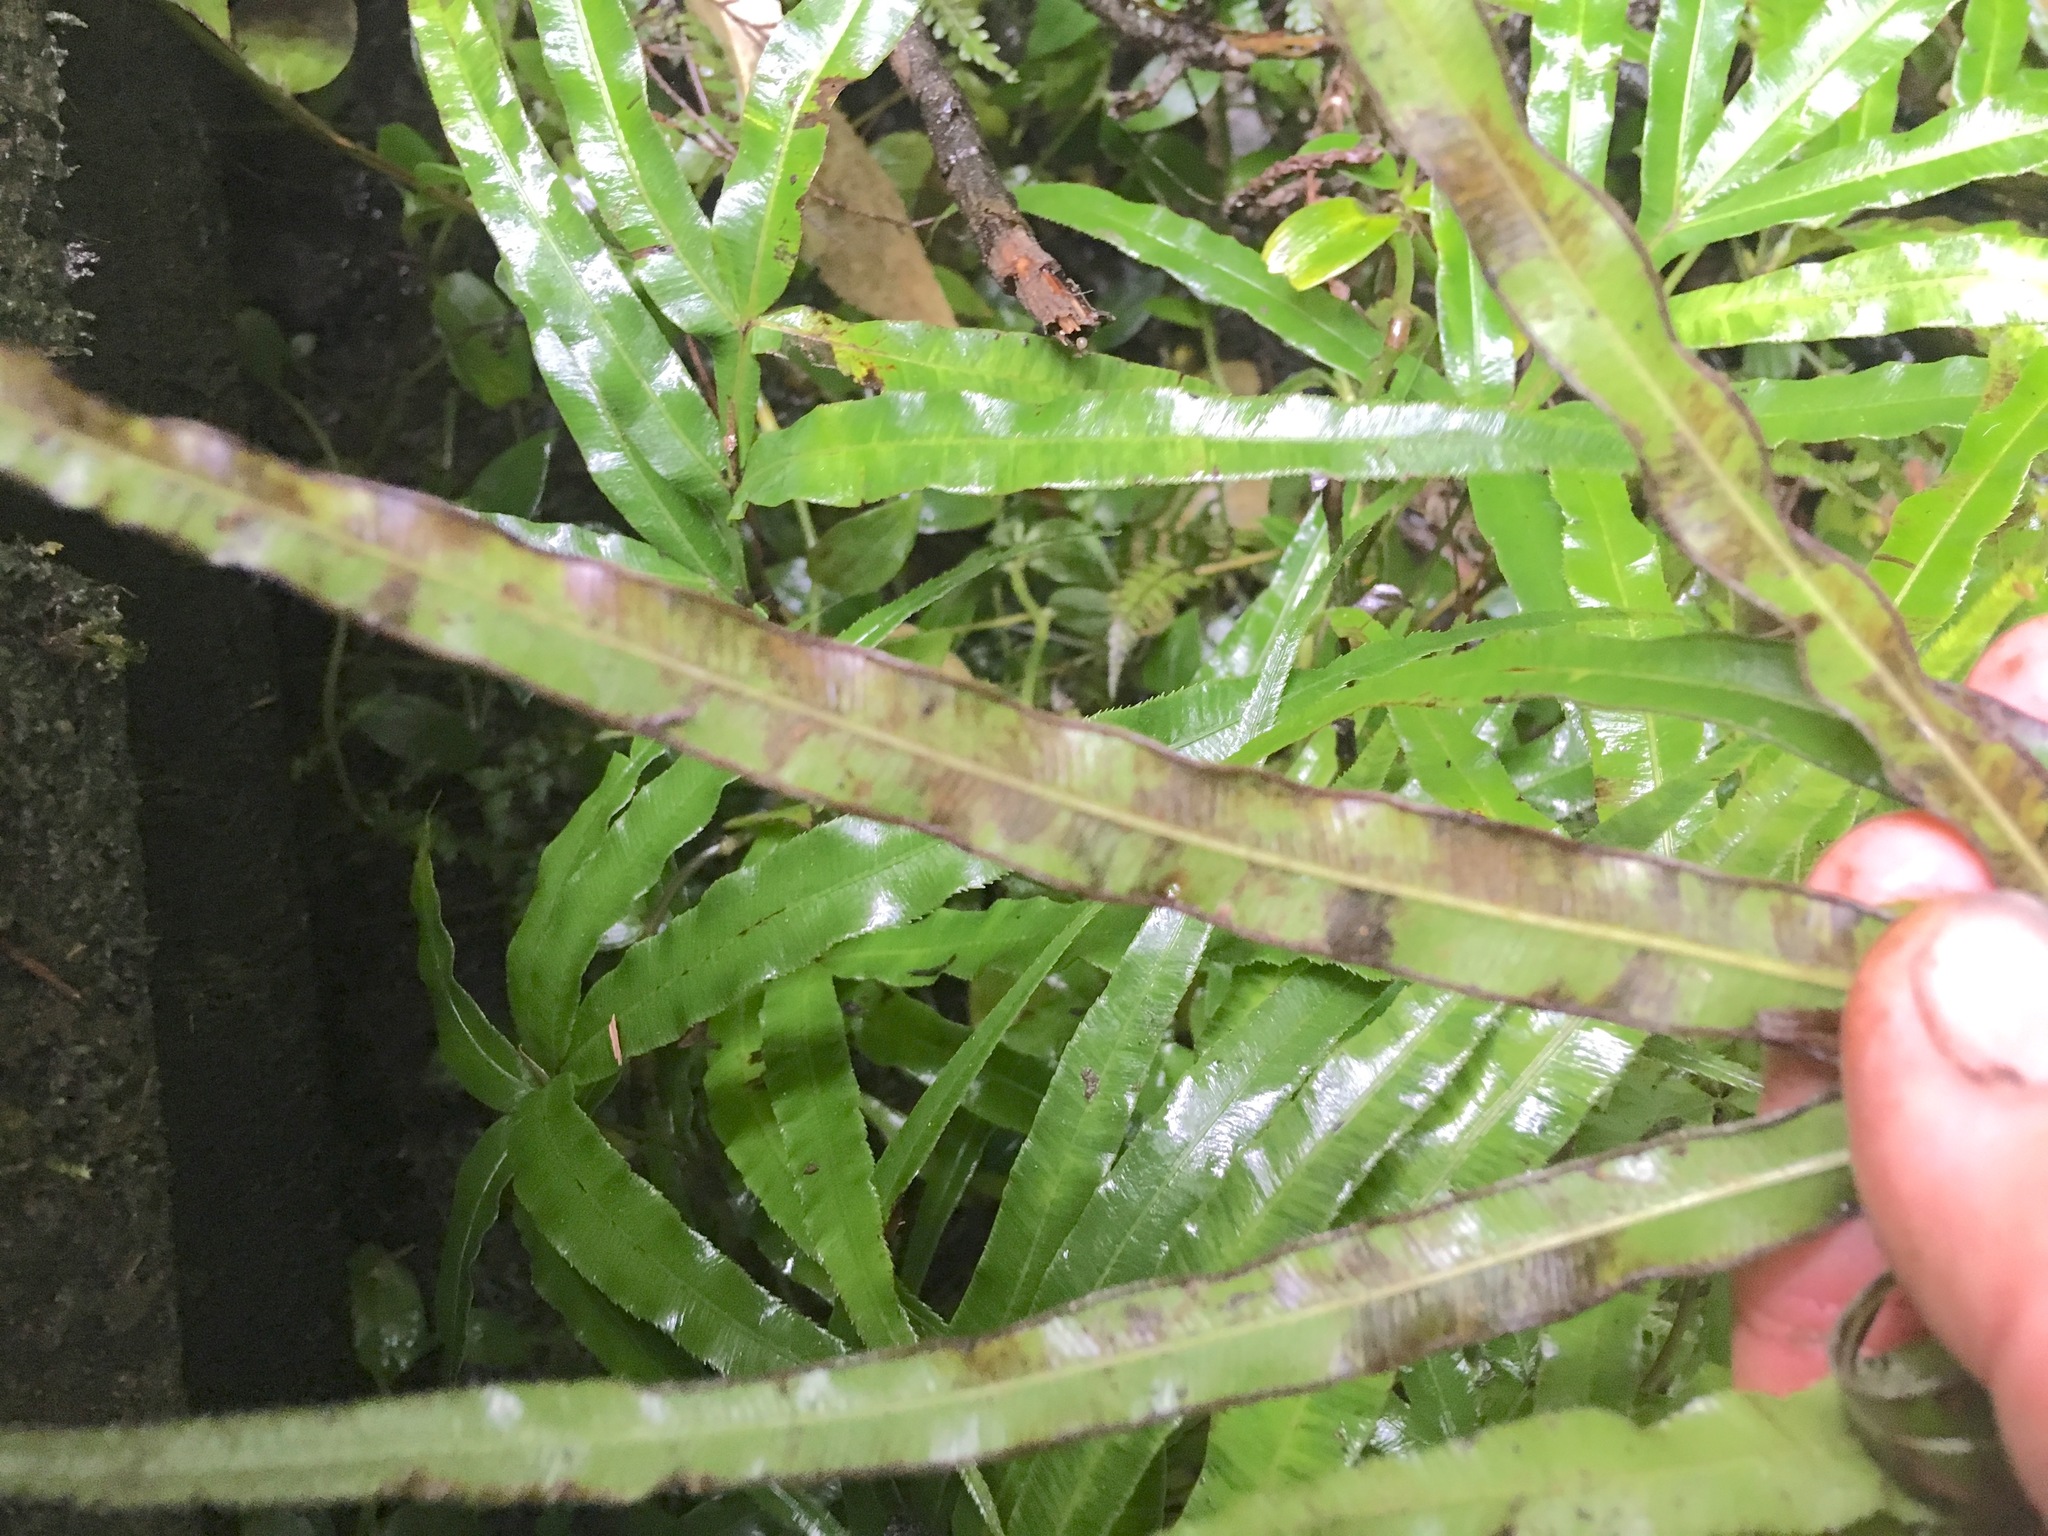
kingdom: Plantae
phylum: Tracheophyta
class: Polypodiopsida
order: Polypodiales
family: Pteridaceae
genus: Pteris
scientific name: Pteris cretica
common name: Ribbon fern
